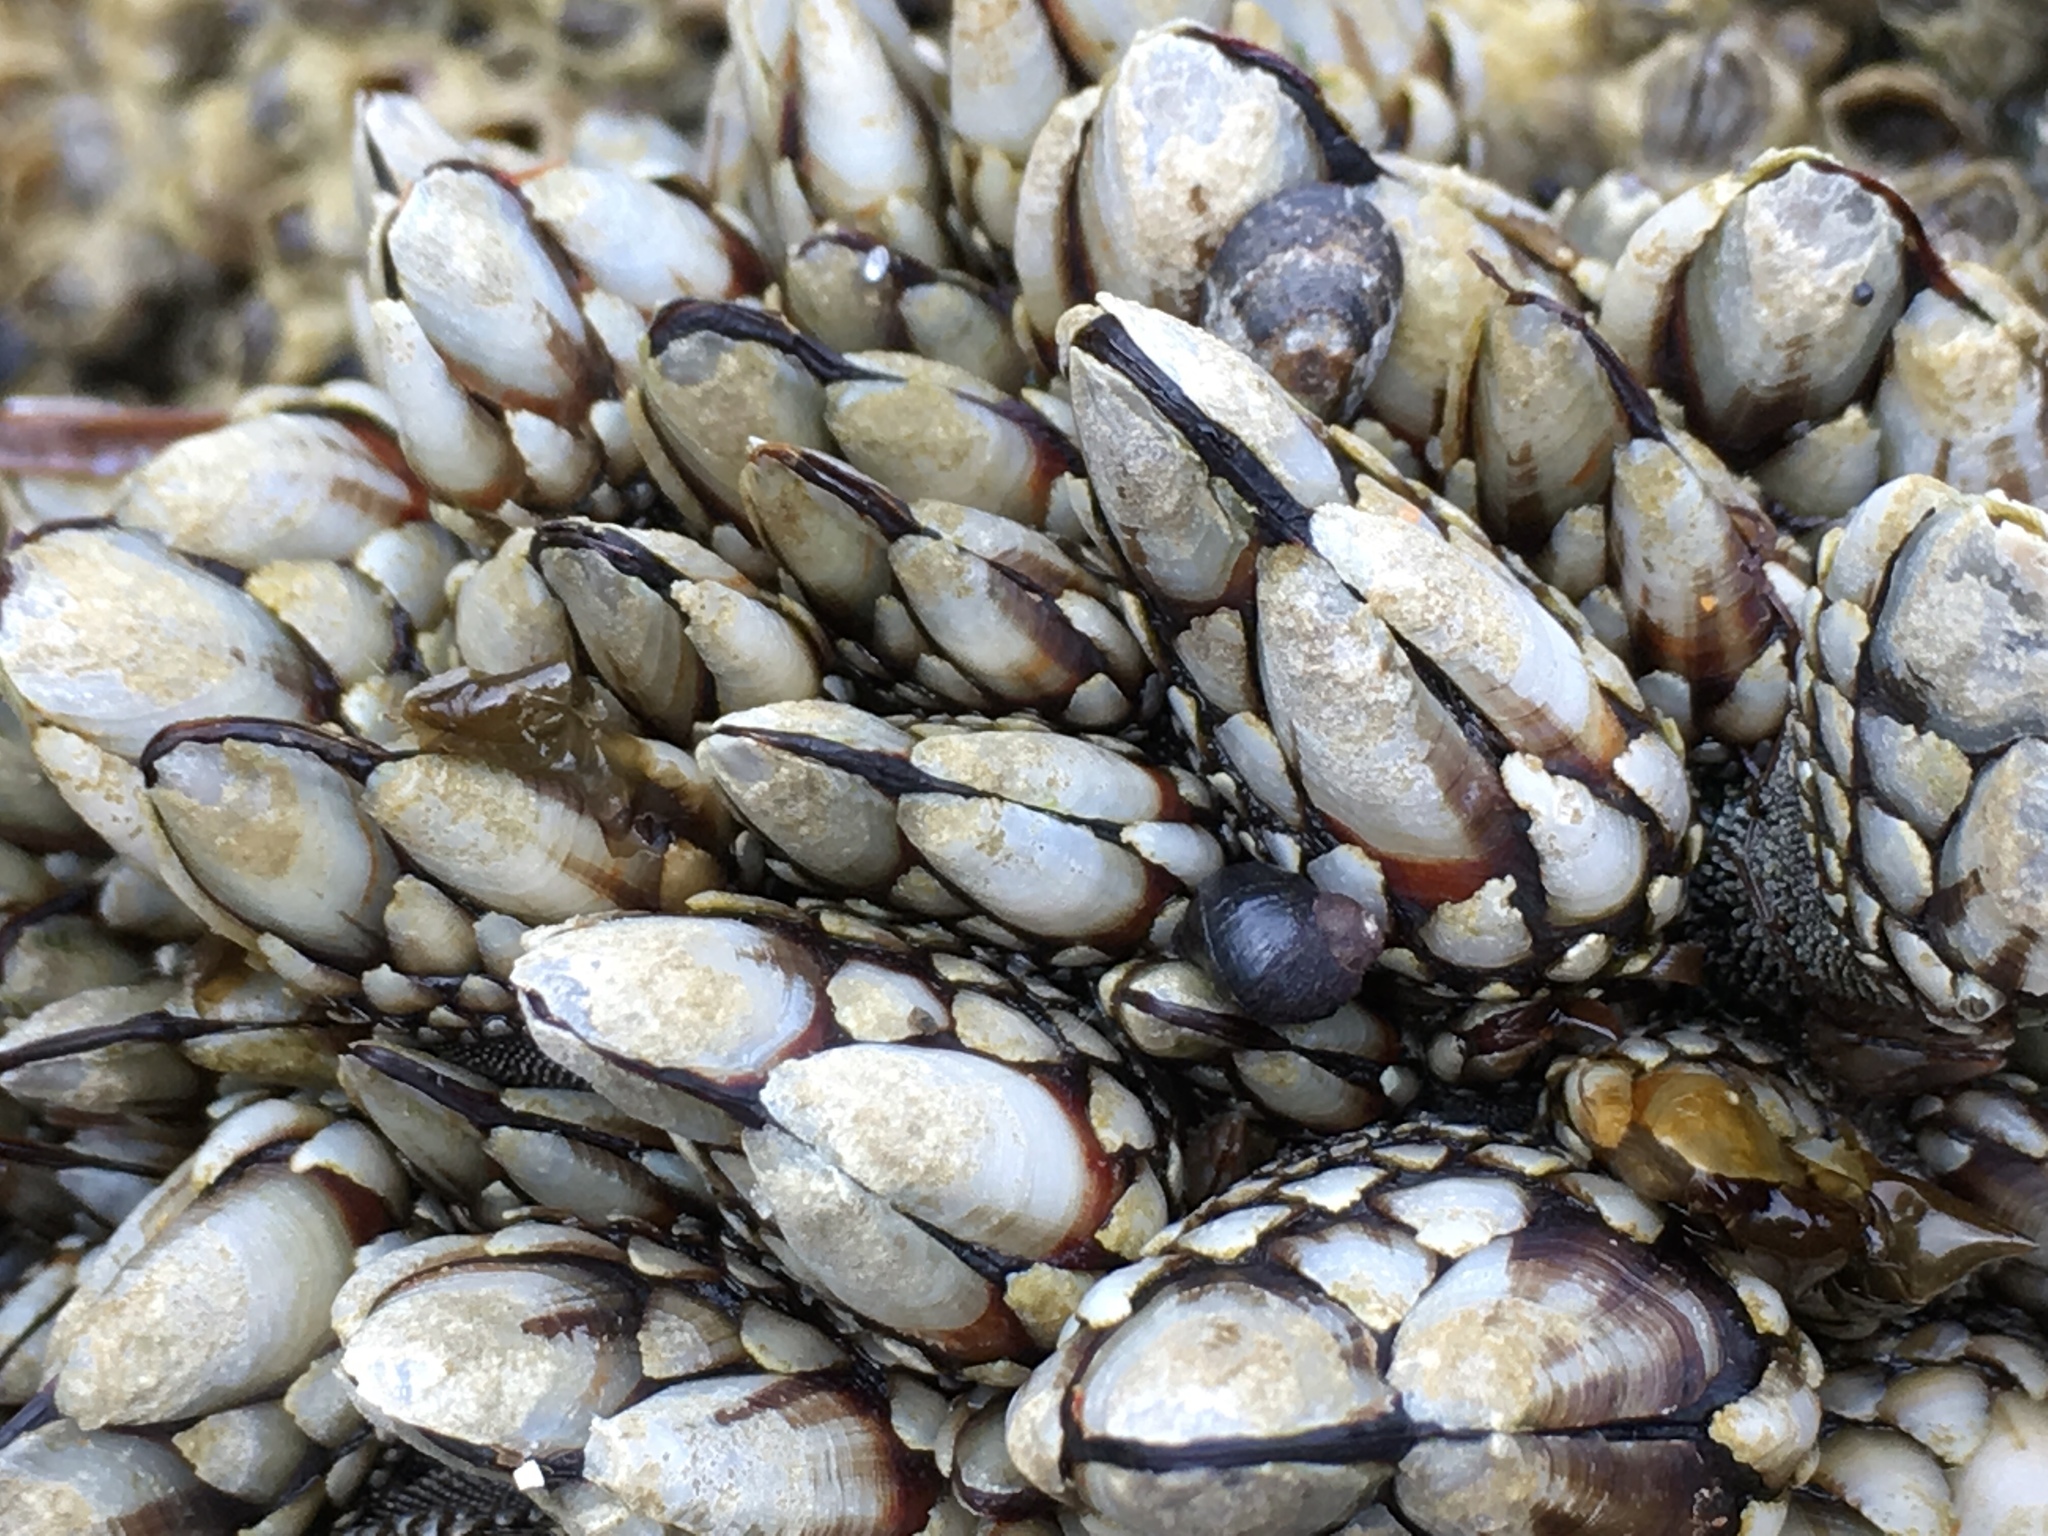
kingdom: Animalia
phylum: Arthropoda
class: Maxillopoda
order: Pedunculata
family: Pollicipedidae
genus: Pollicipes
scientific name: Pollicipes polymerus
